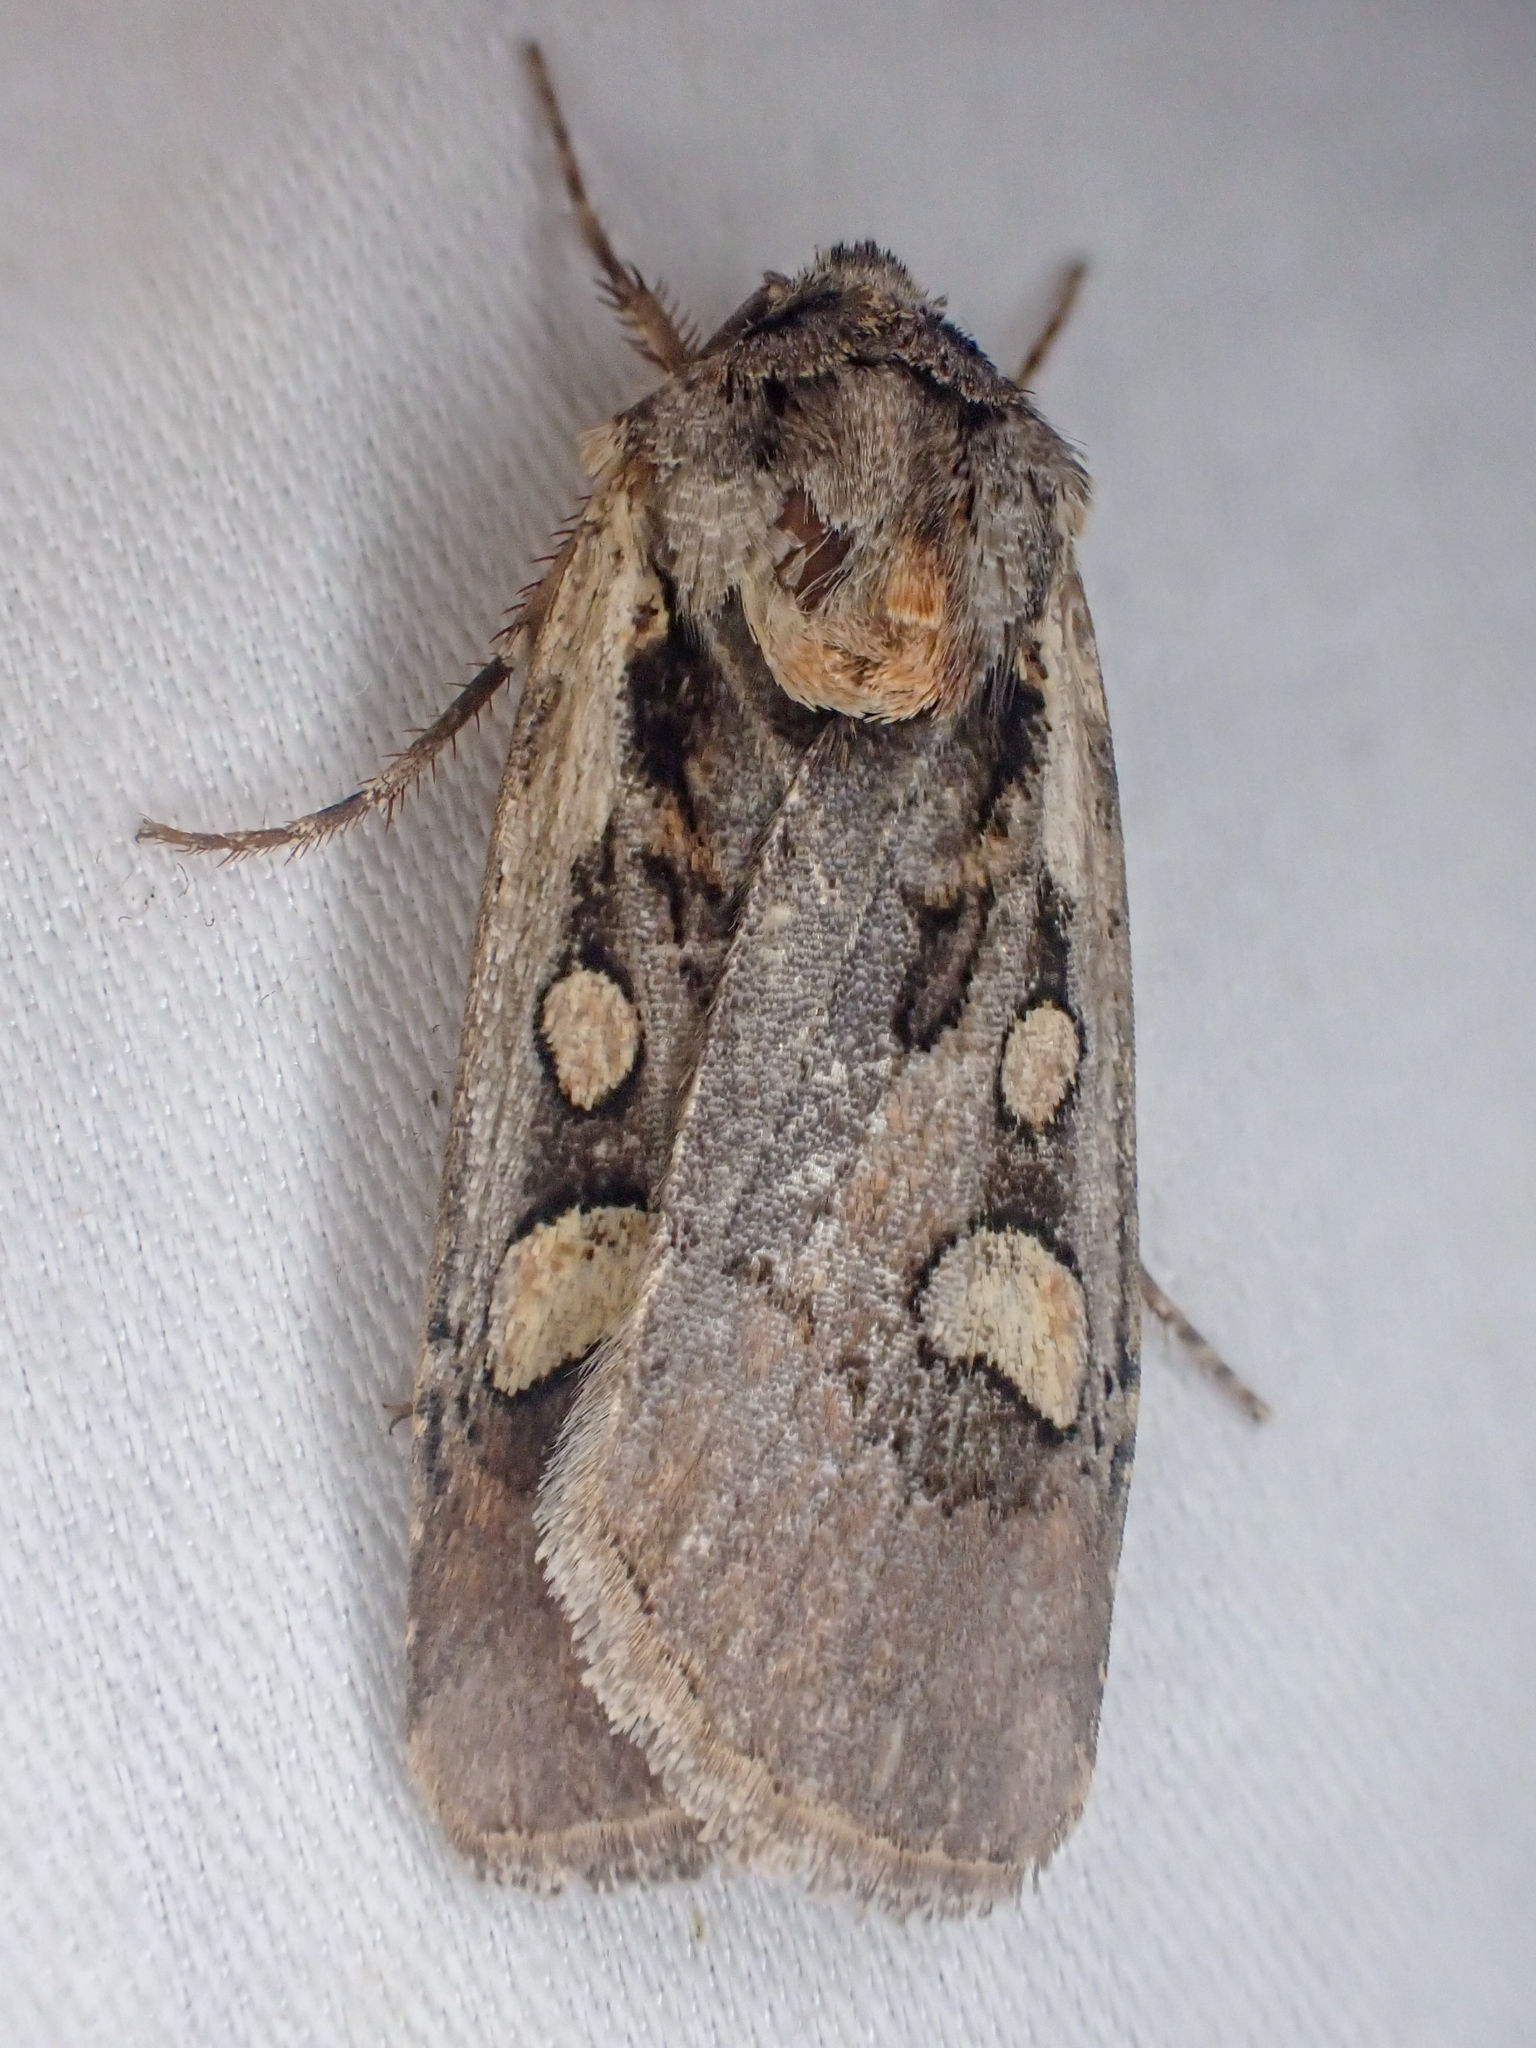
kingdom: Animalia
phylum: Arthropoda
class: Insecta
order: Lepidoptera
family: Noctuidae
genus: Euxoa
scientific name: Euxoa obeliscoides
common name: Obelisk dart moth
